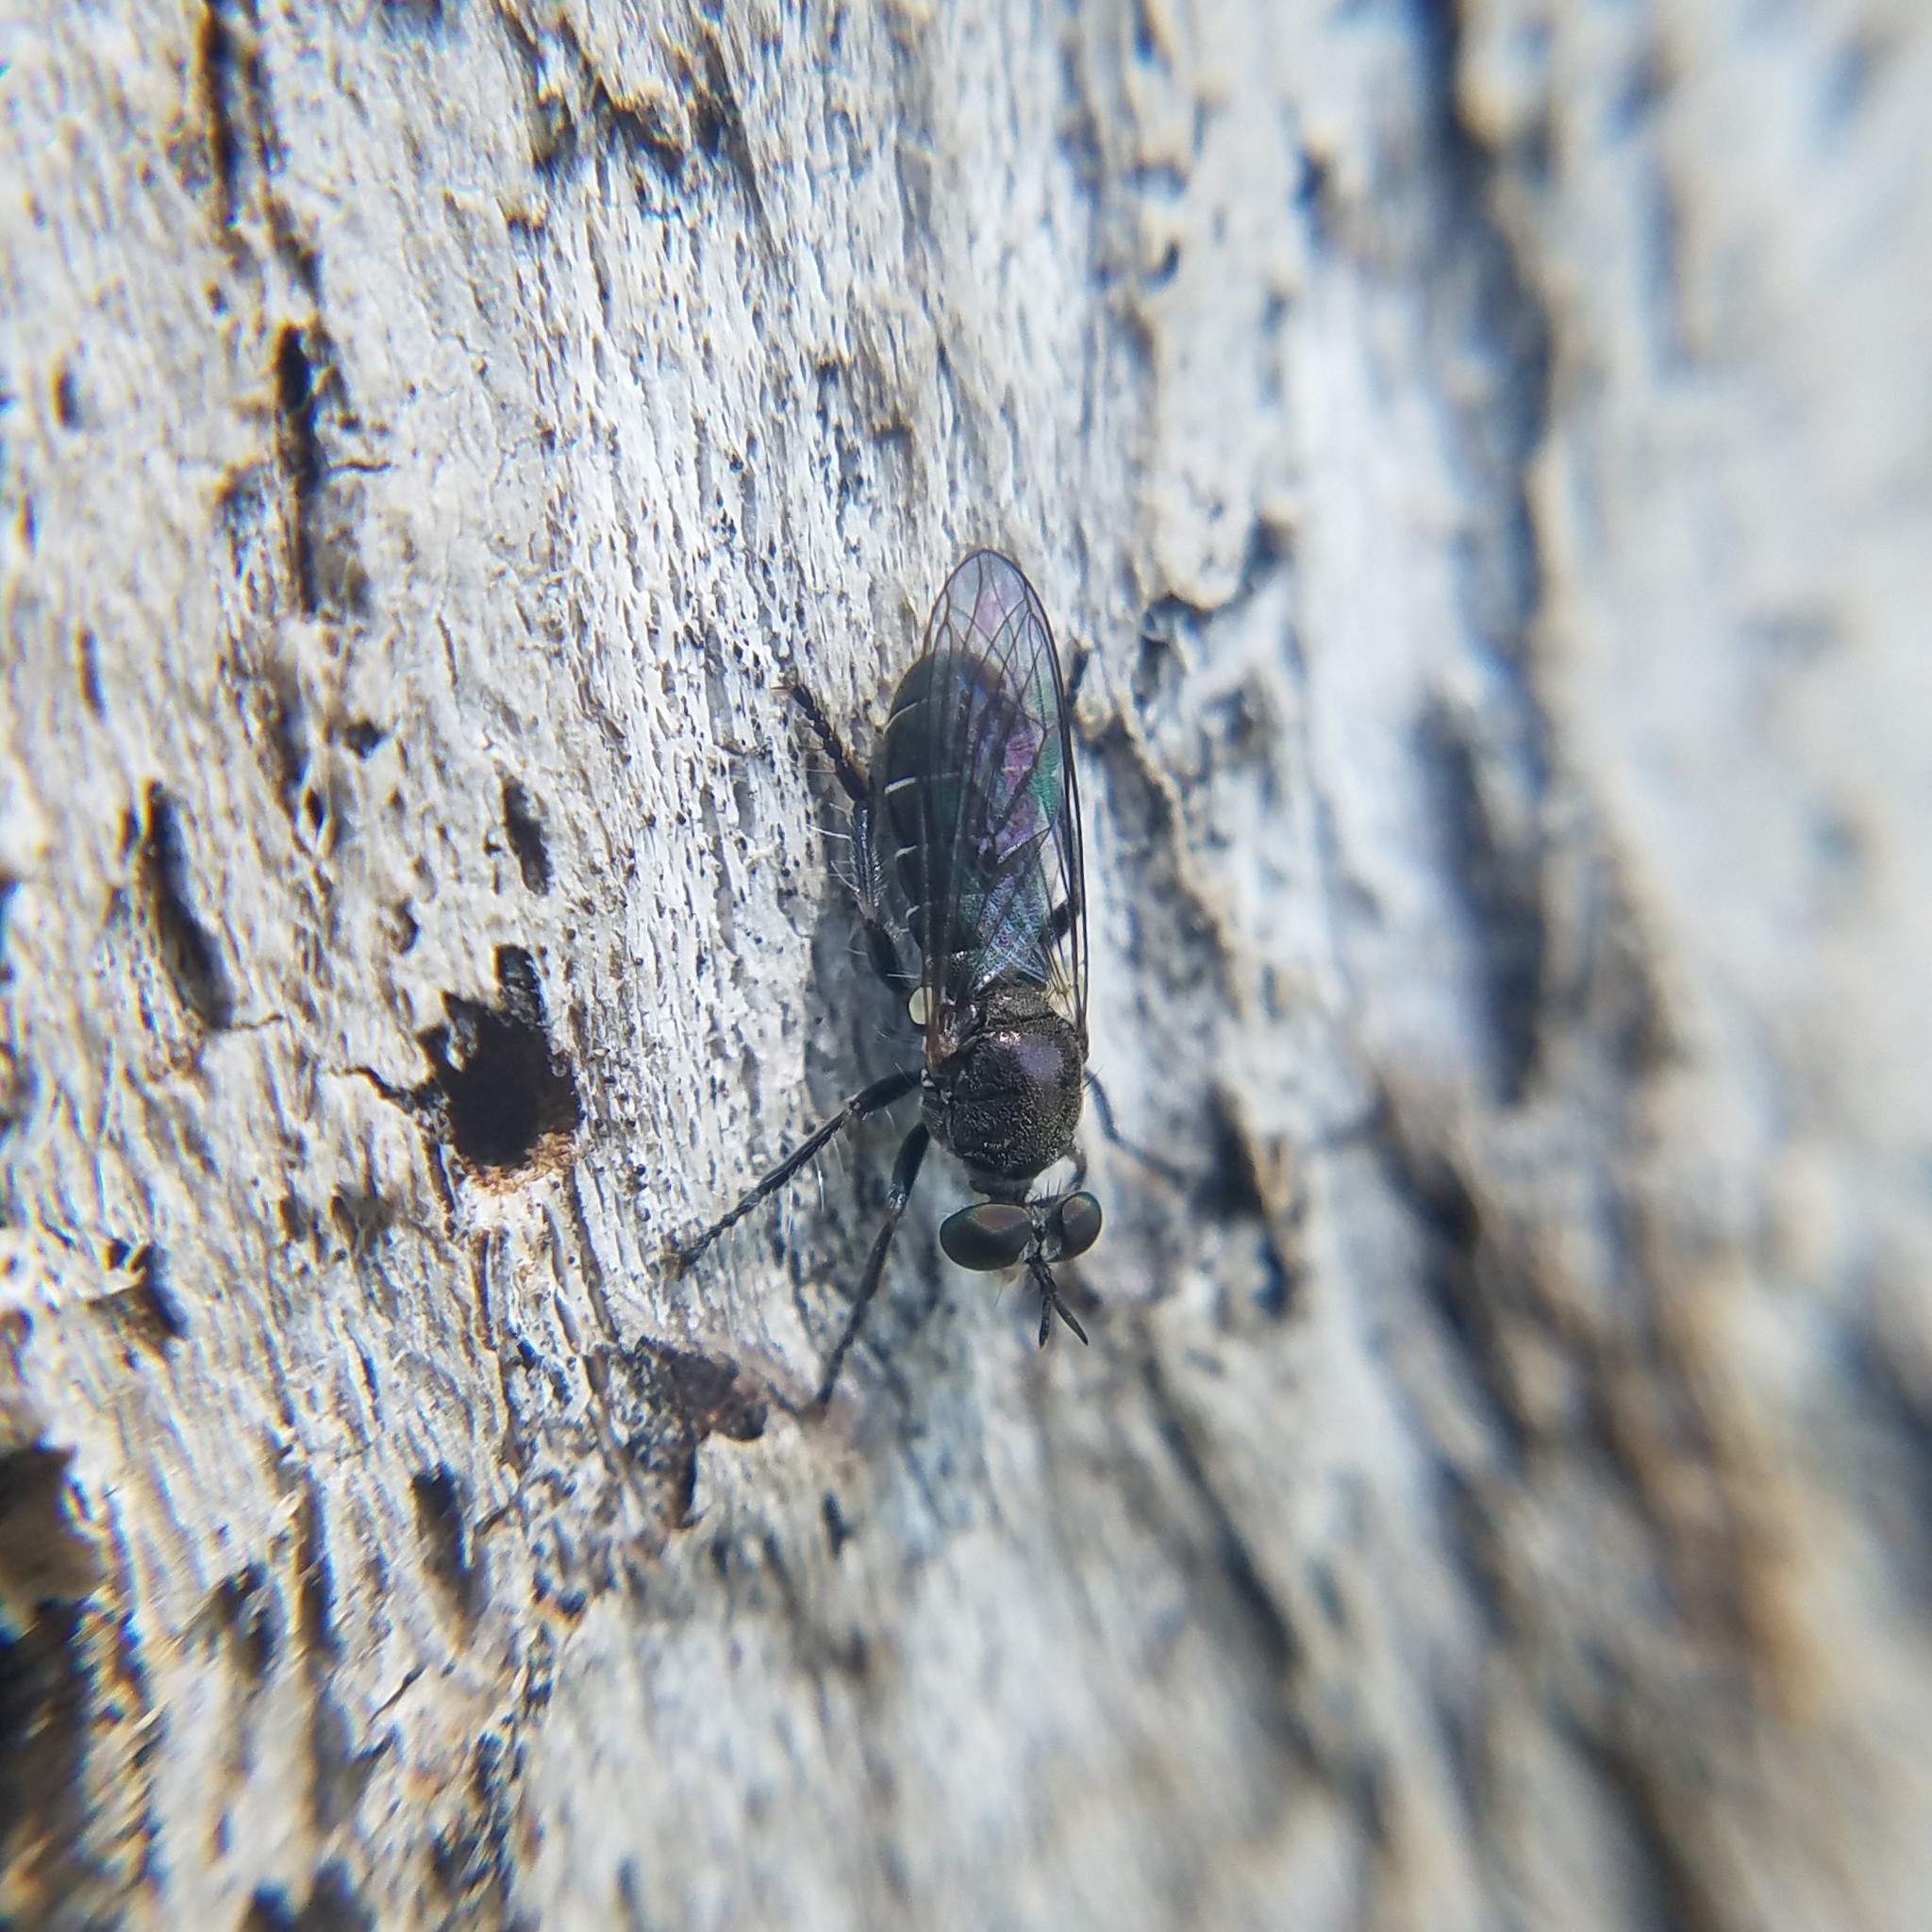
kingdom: Animalia
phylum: Arthropoda
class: Insecta
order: Diptera
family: Asilidae
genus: Atomosia
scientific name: Atomosia puella
